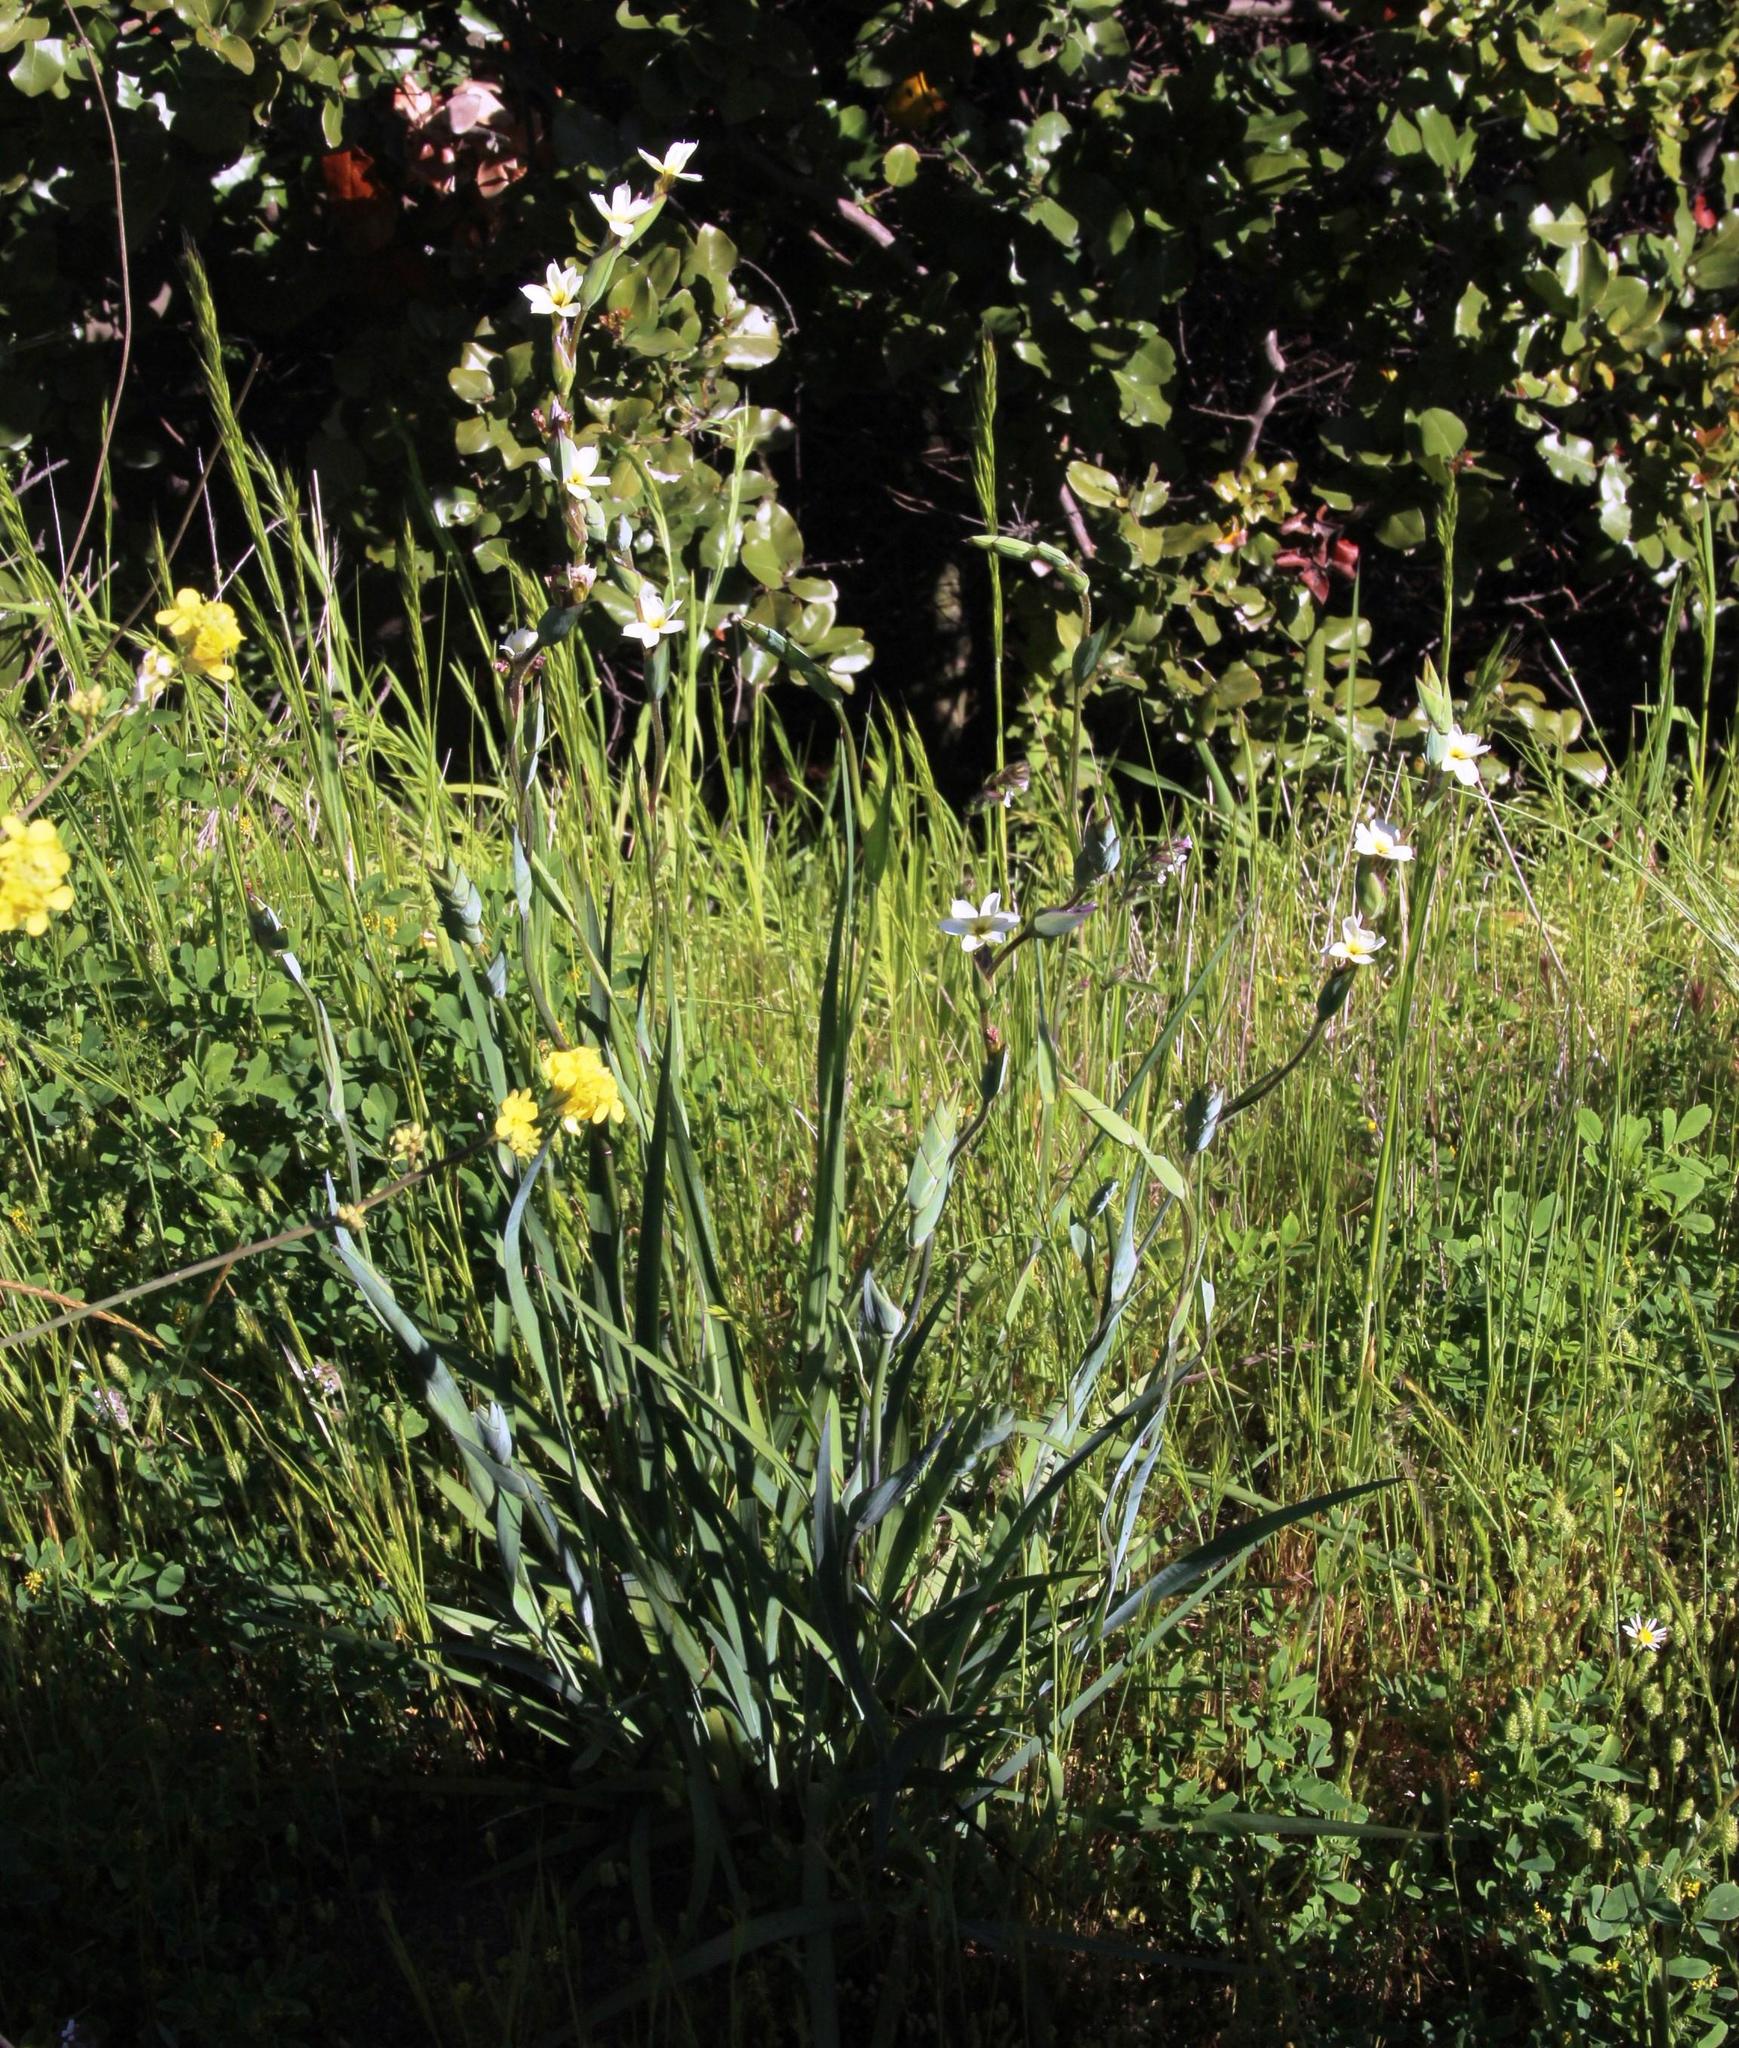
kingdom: Plantae
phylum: Tracheophyta
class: Liliopsida
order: Asparagales
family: Iridaceae
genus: Sisyrinchium
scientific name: Sisyrinchium cuspidatum
